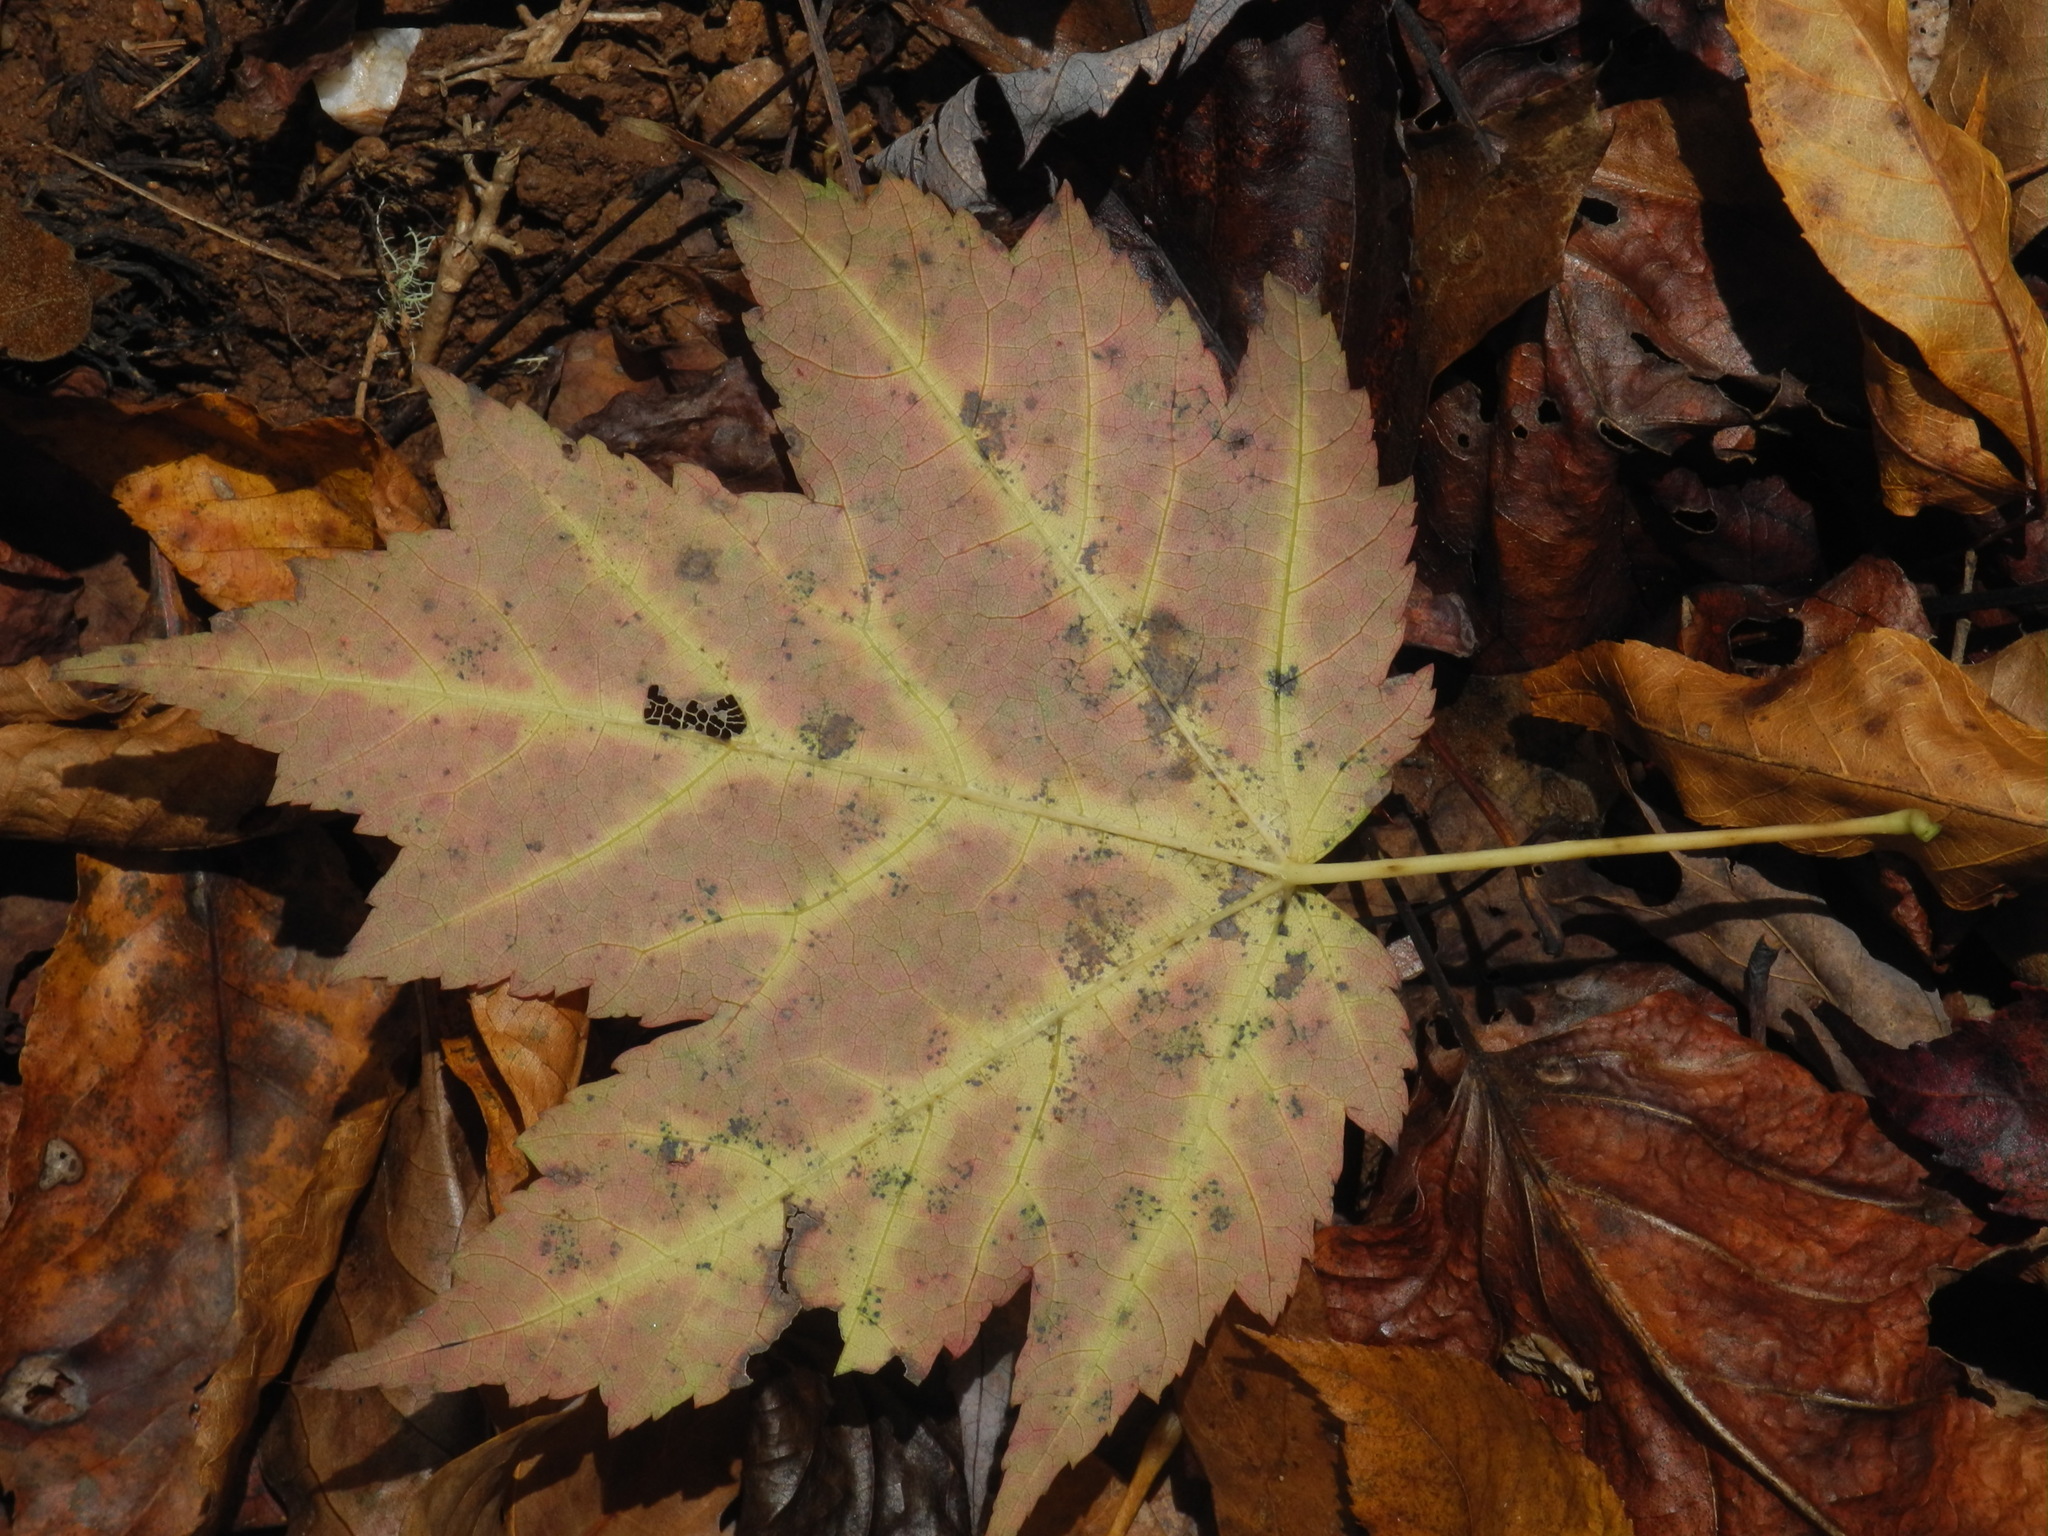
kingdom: Plantae
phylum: Tracheophyta
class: Magnoliopsida
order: Sapindales
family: Sapindaceae
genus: Acer
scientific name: Acer freemanii
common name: Freeman maple
